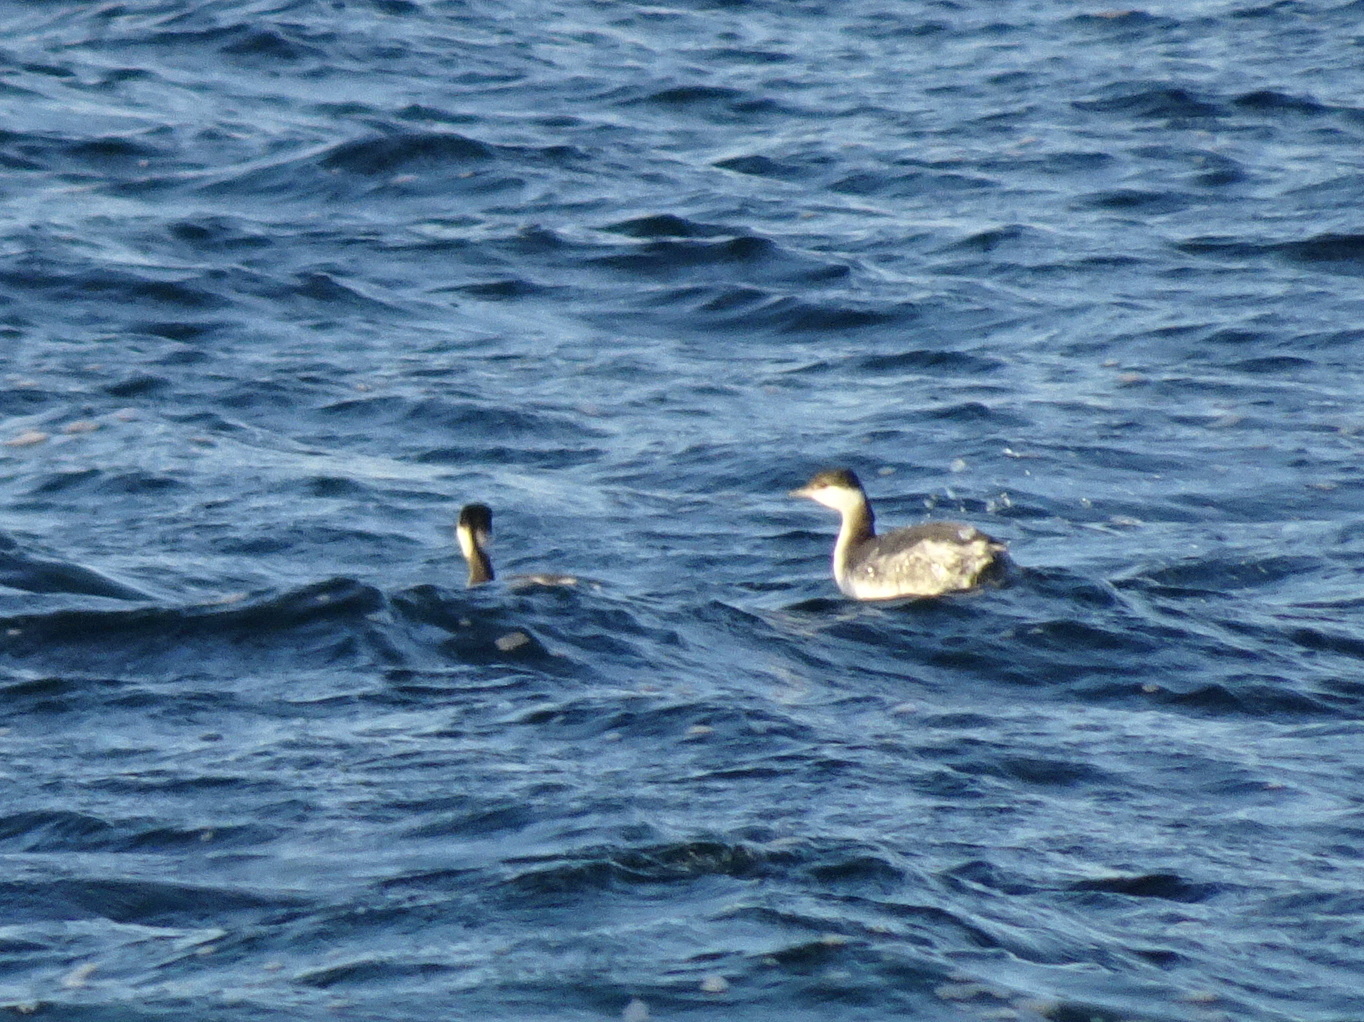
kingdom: Animalia
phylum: Chordata
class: Aves
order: Podicipediformes
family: Podicipedidae
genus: Podiceps
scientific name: Podiceps auritus
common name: Horned grebe
